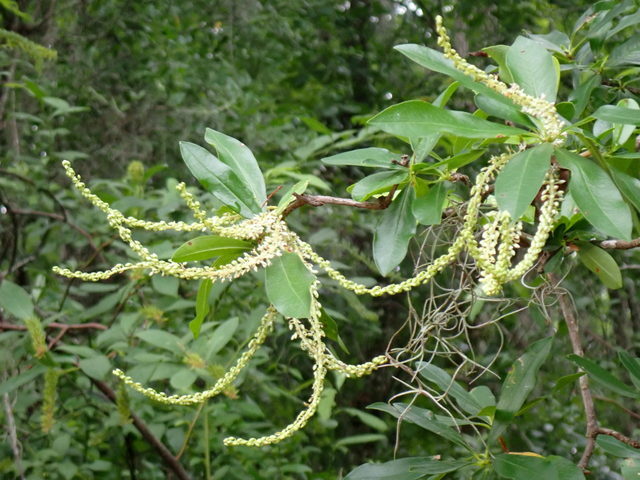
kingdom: Plantae
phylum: Tracheophyta
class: Magnoliopsida
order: Ericales
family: Cyrillaceae
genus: Cyrilla
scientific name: Cyrilla racemiflora
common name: Black titi
